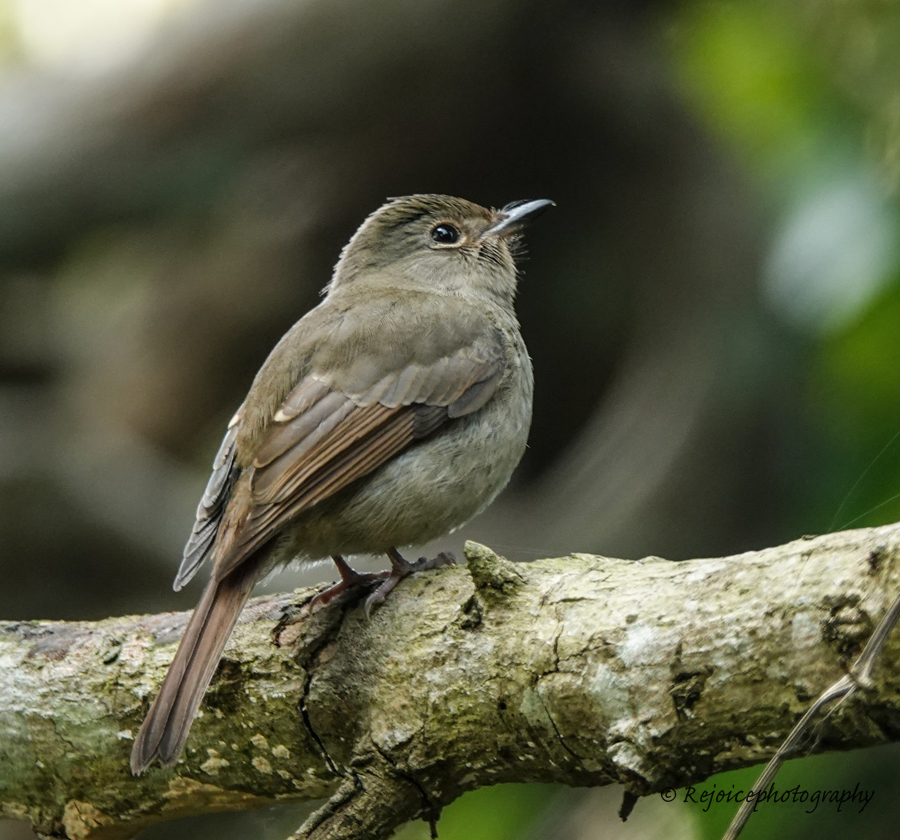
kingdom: Animalia
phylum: Chordata
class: Aves
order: Passeriformes
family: Muscicapidae
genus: Cyornis
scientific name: Cyornis unicolor
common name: Pale blue flycatcher
